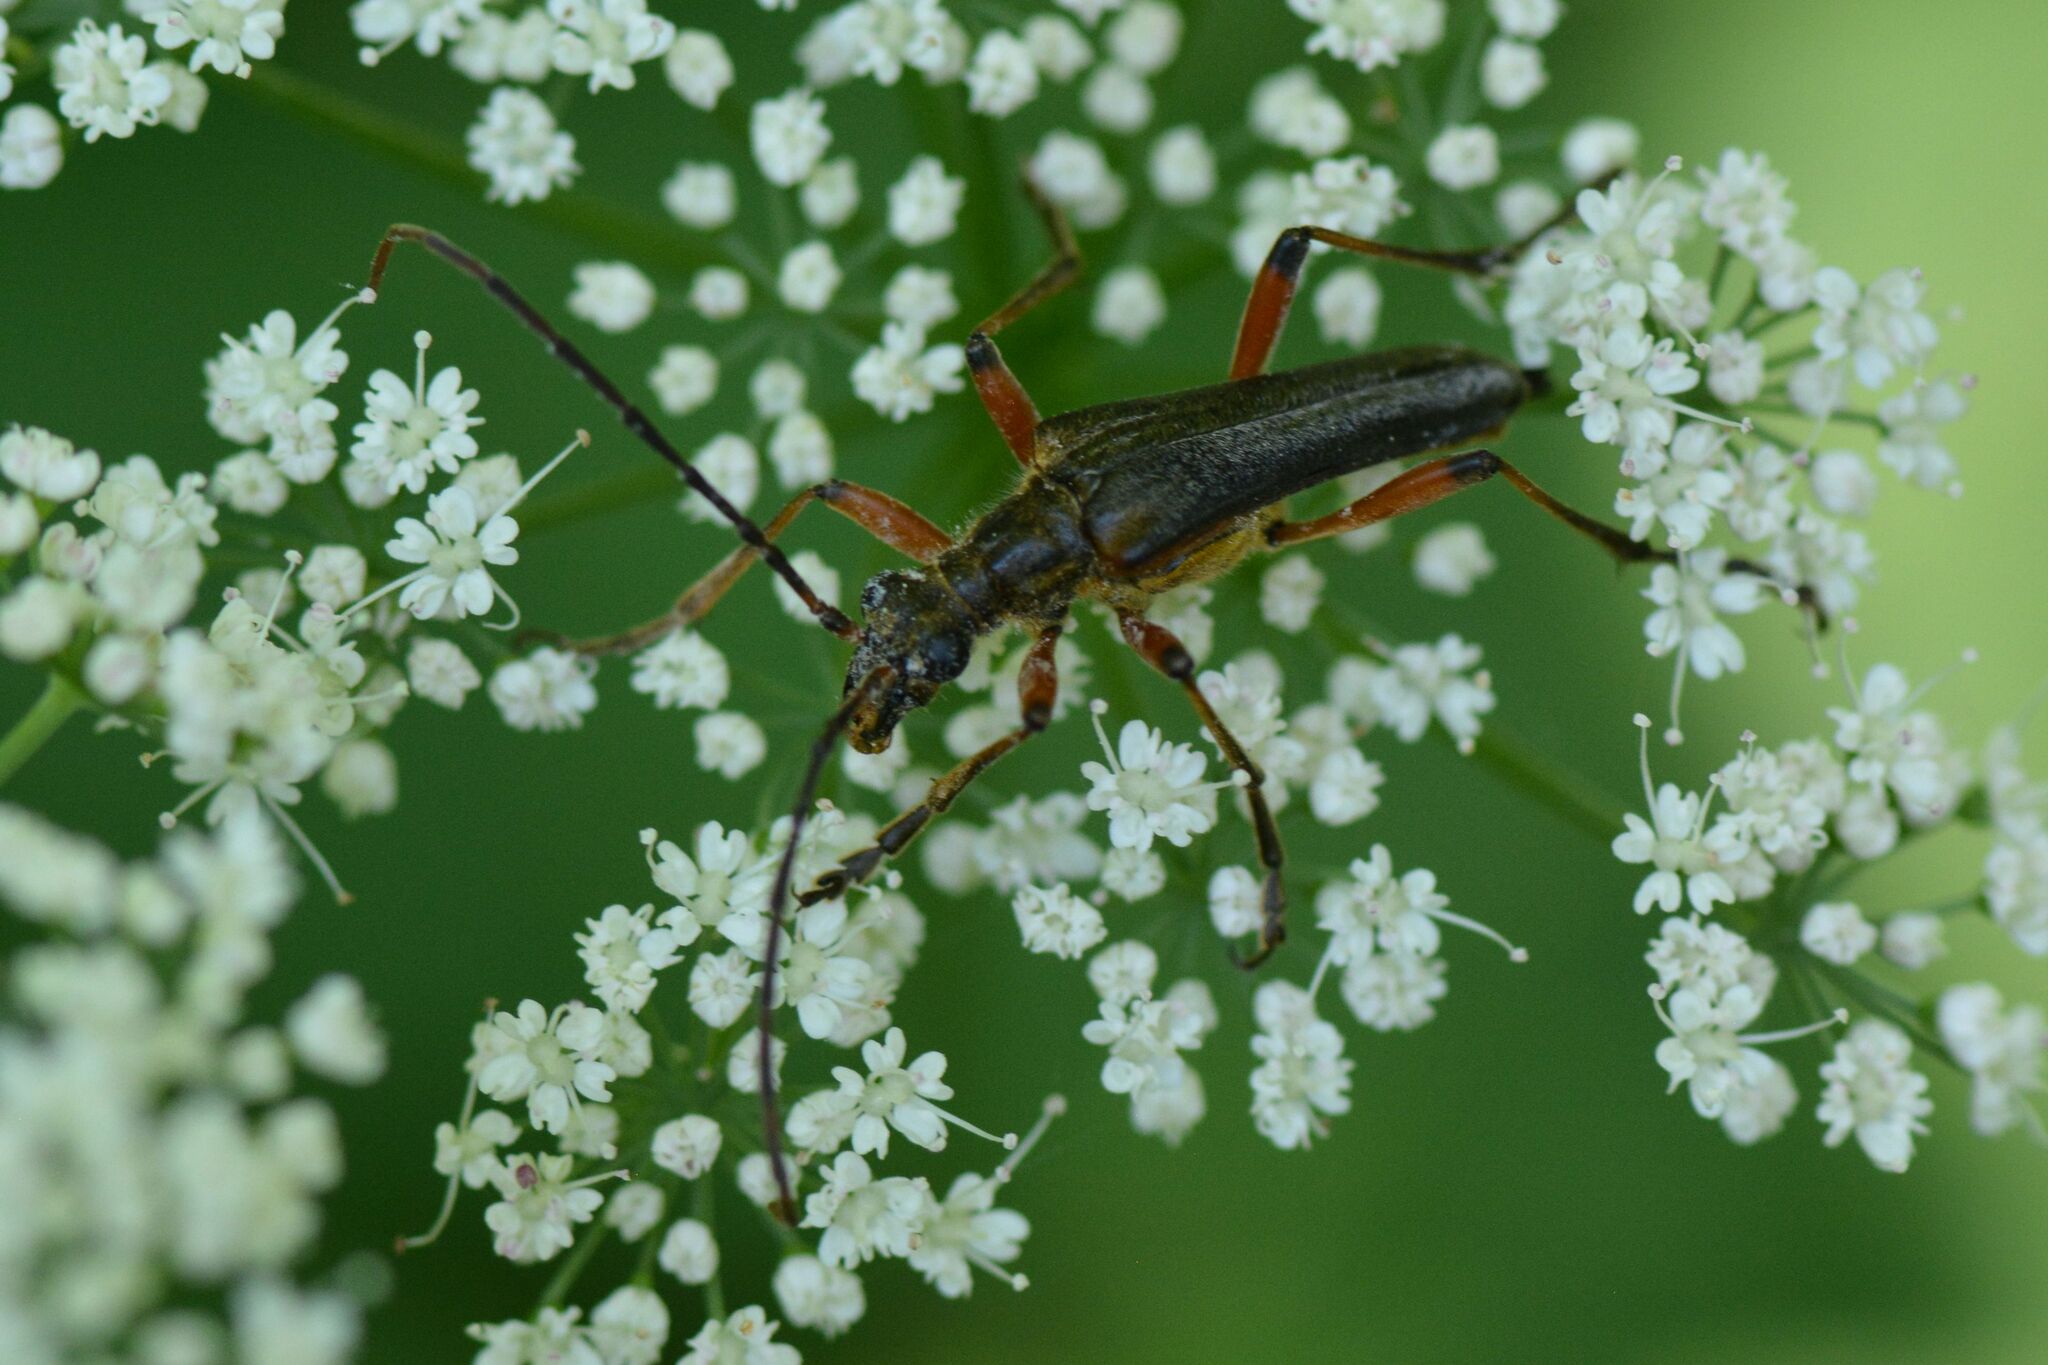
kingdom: Animalia
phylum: Arthropoda
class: Insecta
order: Coleoptera
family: Cerambycidae
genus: Stenocorus
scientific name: Stenocorus meridianus
